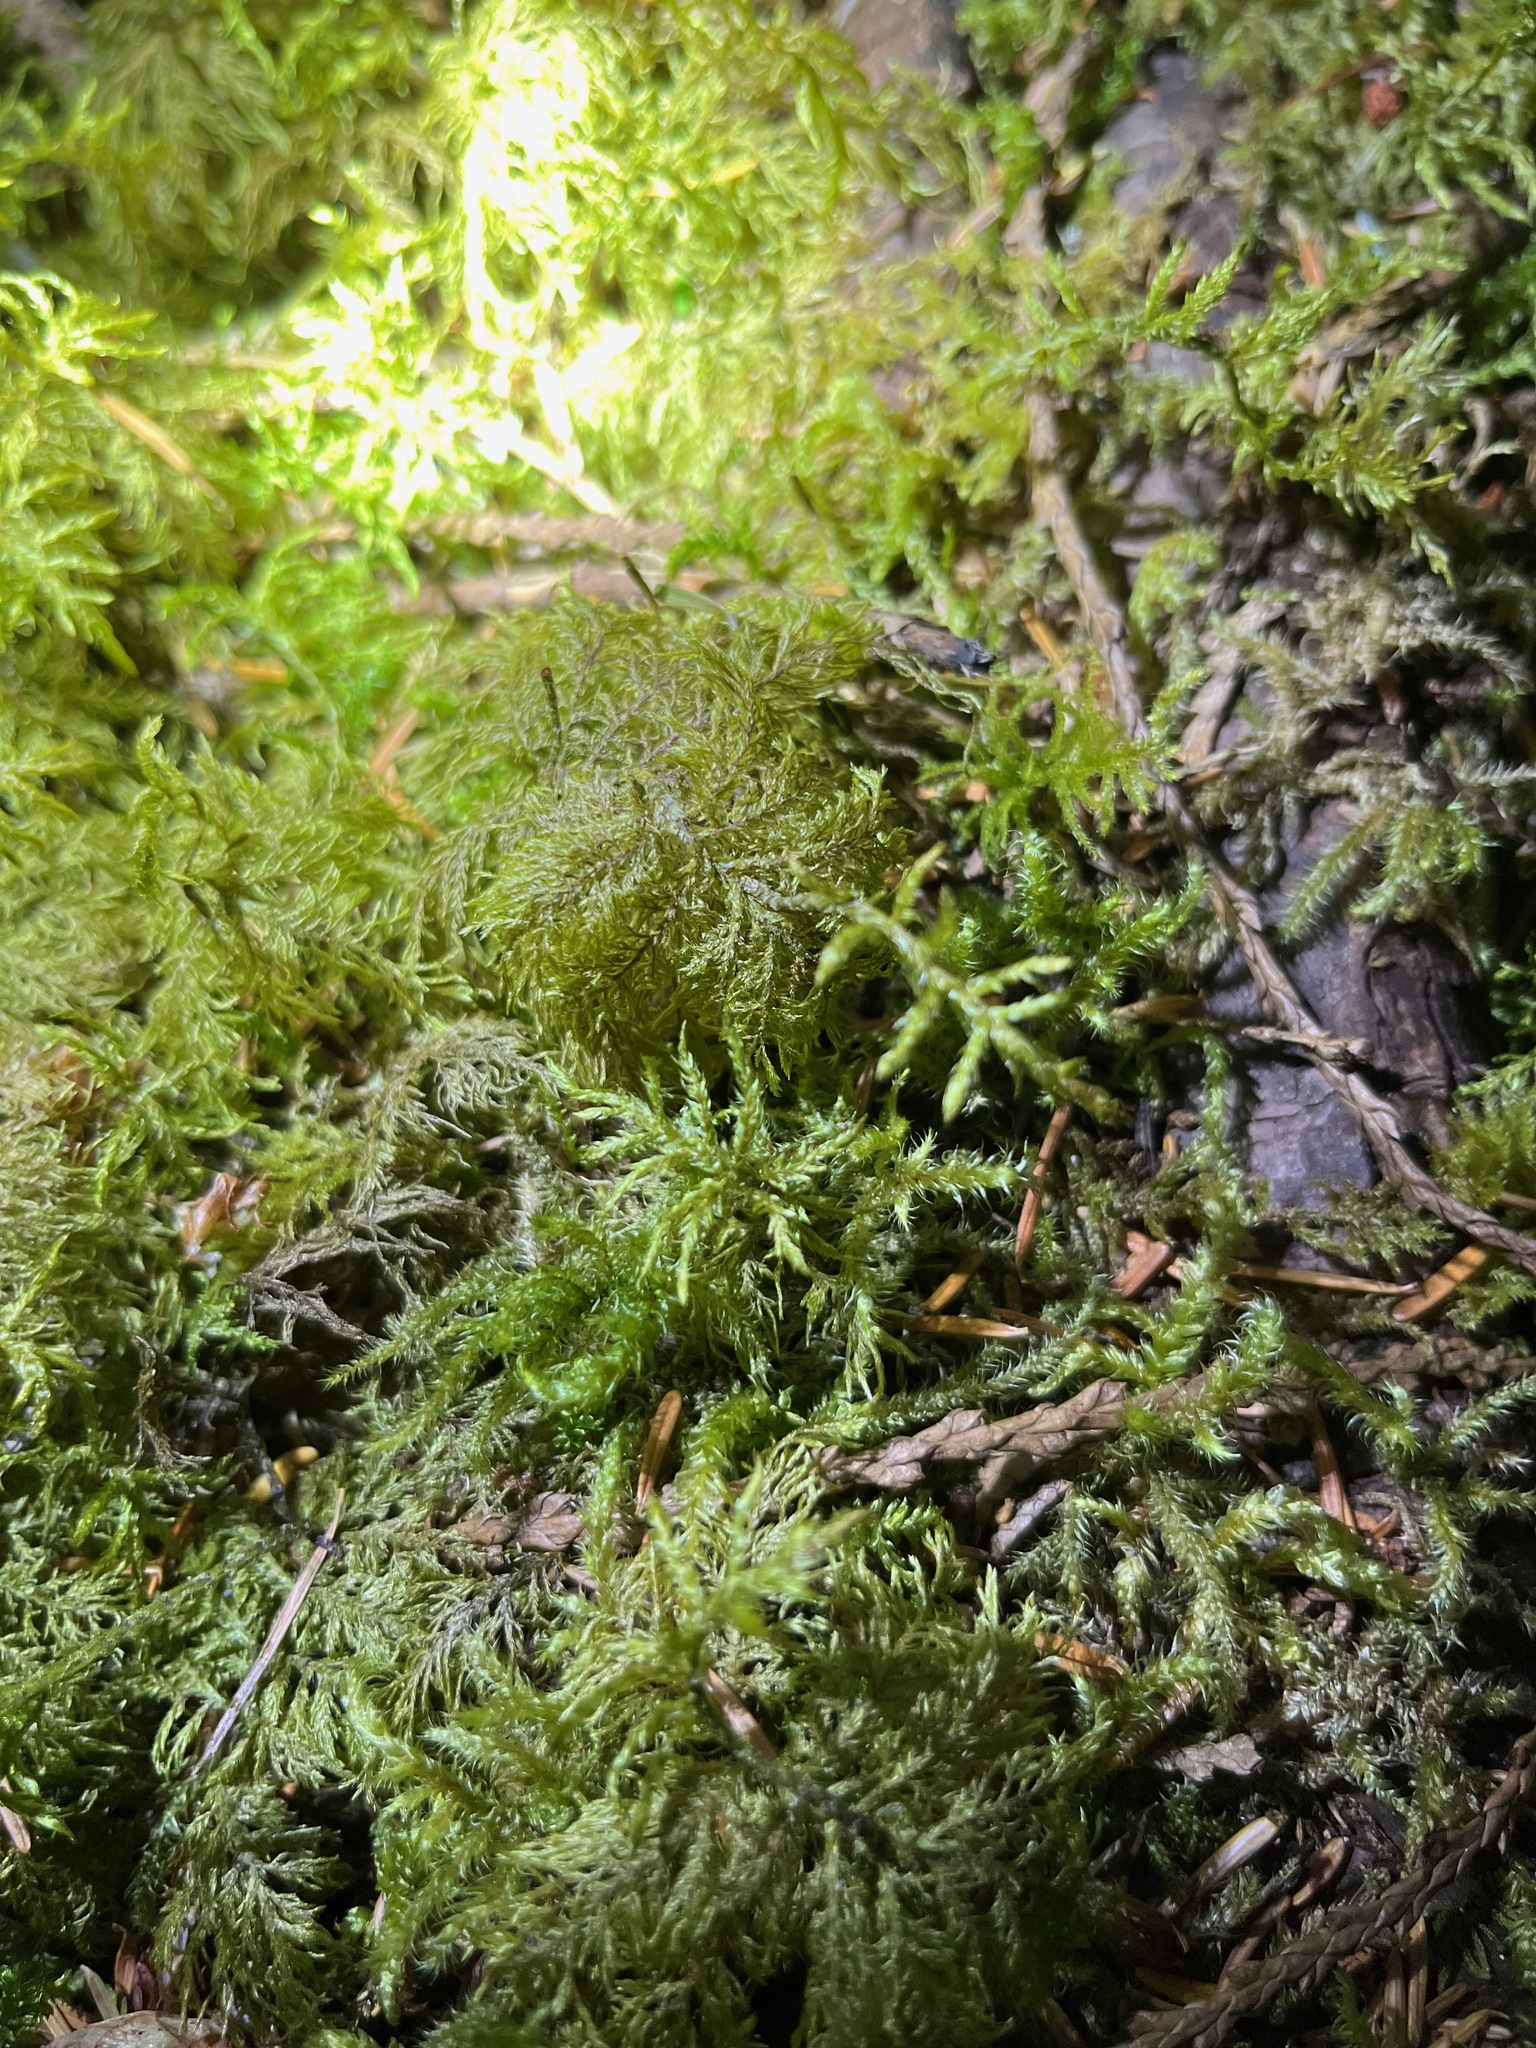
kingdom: Plantae
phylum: Bryophyta
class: Bryopsida
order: Hypnales
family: Hylocomiaceae
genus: Hylocomium
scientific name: Hylocomium splendens
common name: Stairstep moss
